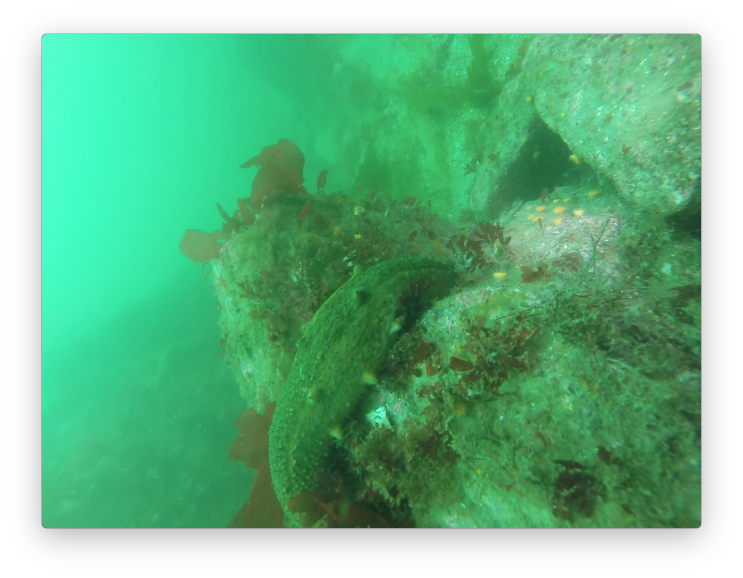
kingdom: Animalia
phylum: Echinodermata
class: Holothuroidea
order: Synallactida
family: Stichopodidae
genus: Apostichopus
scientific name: Apostichopus parvimensis
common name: Warty sea cucumber
